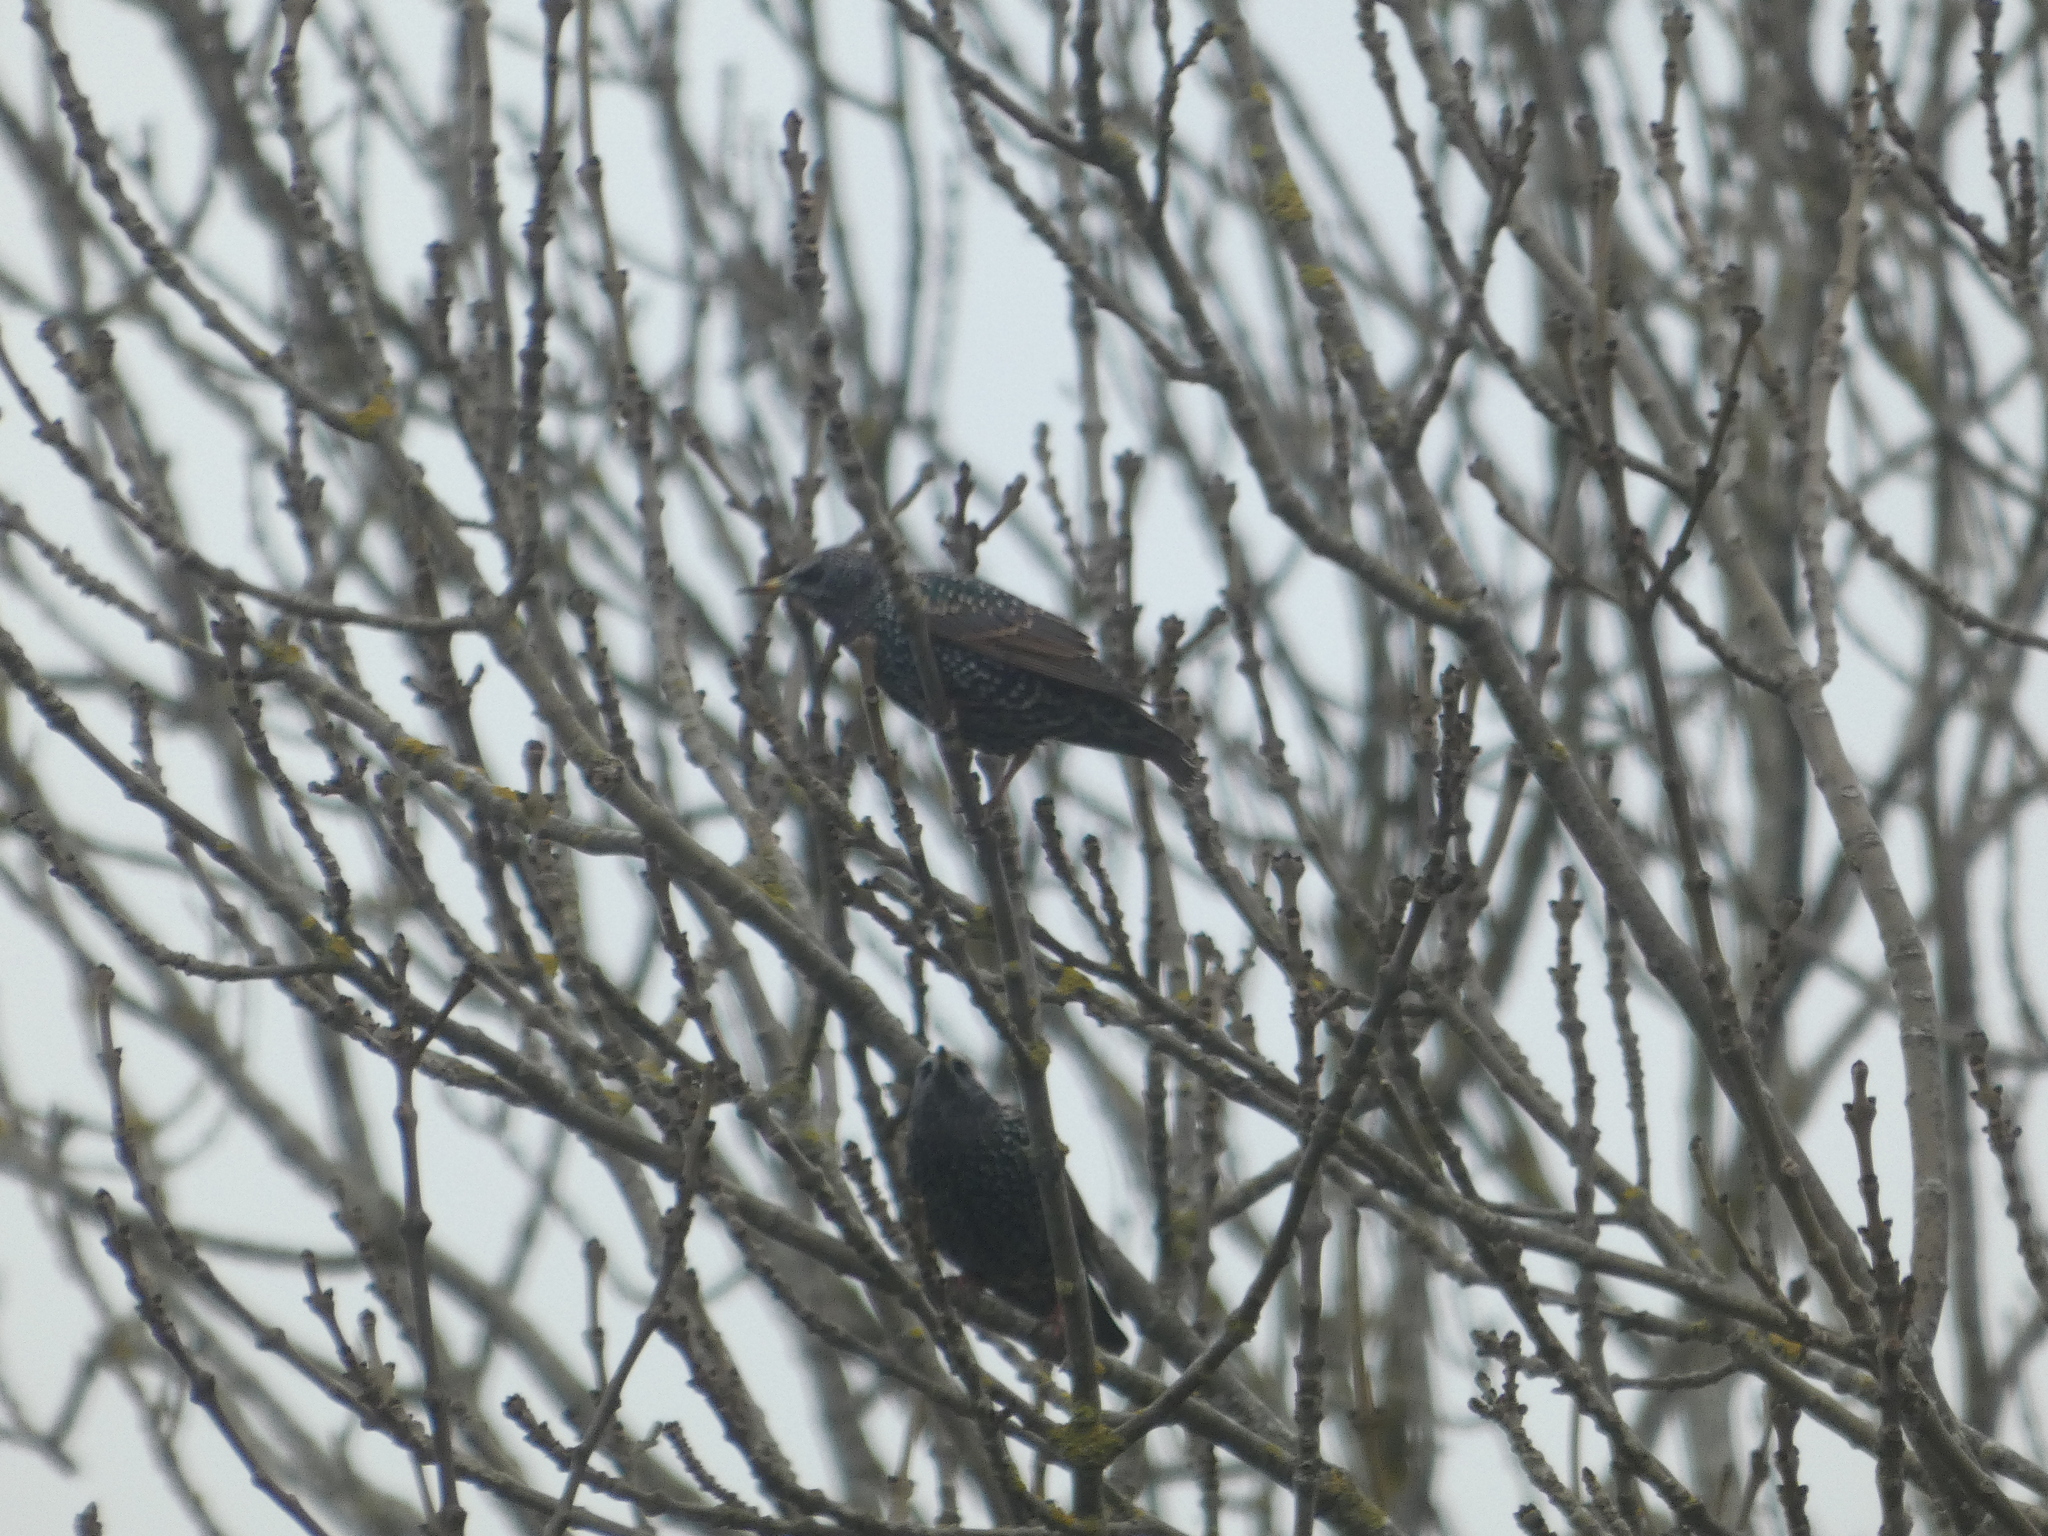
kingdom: Animalia
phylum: Chordata
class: Aves
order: Passeriformes
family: Sturnidae
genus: Sturnus
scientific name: Sturnus vulgaris
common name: Common starling
